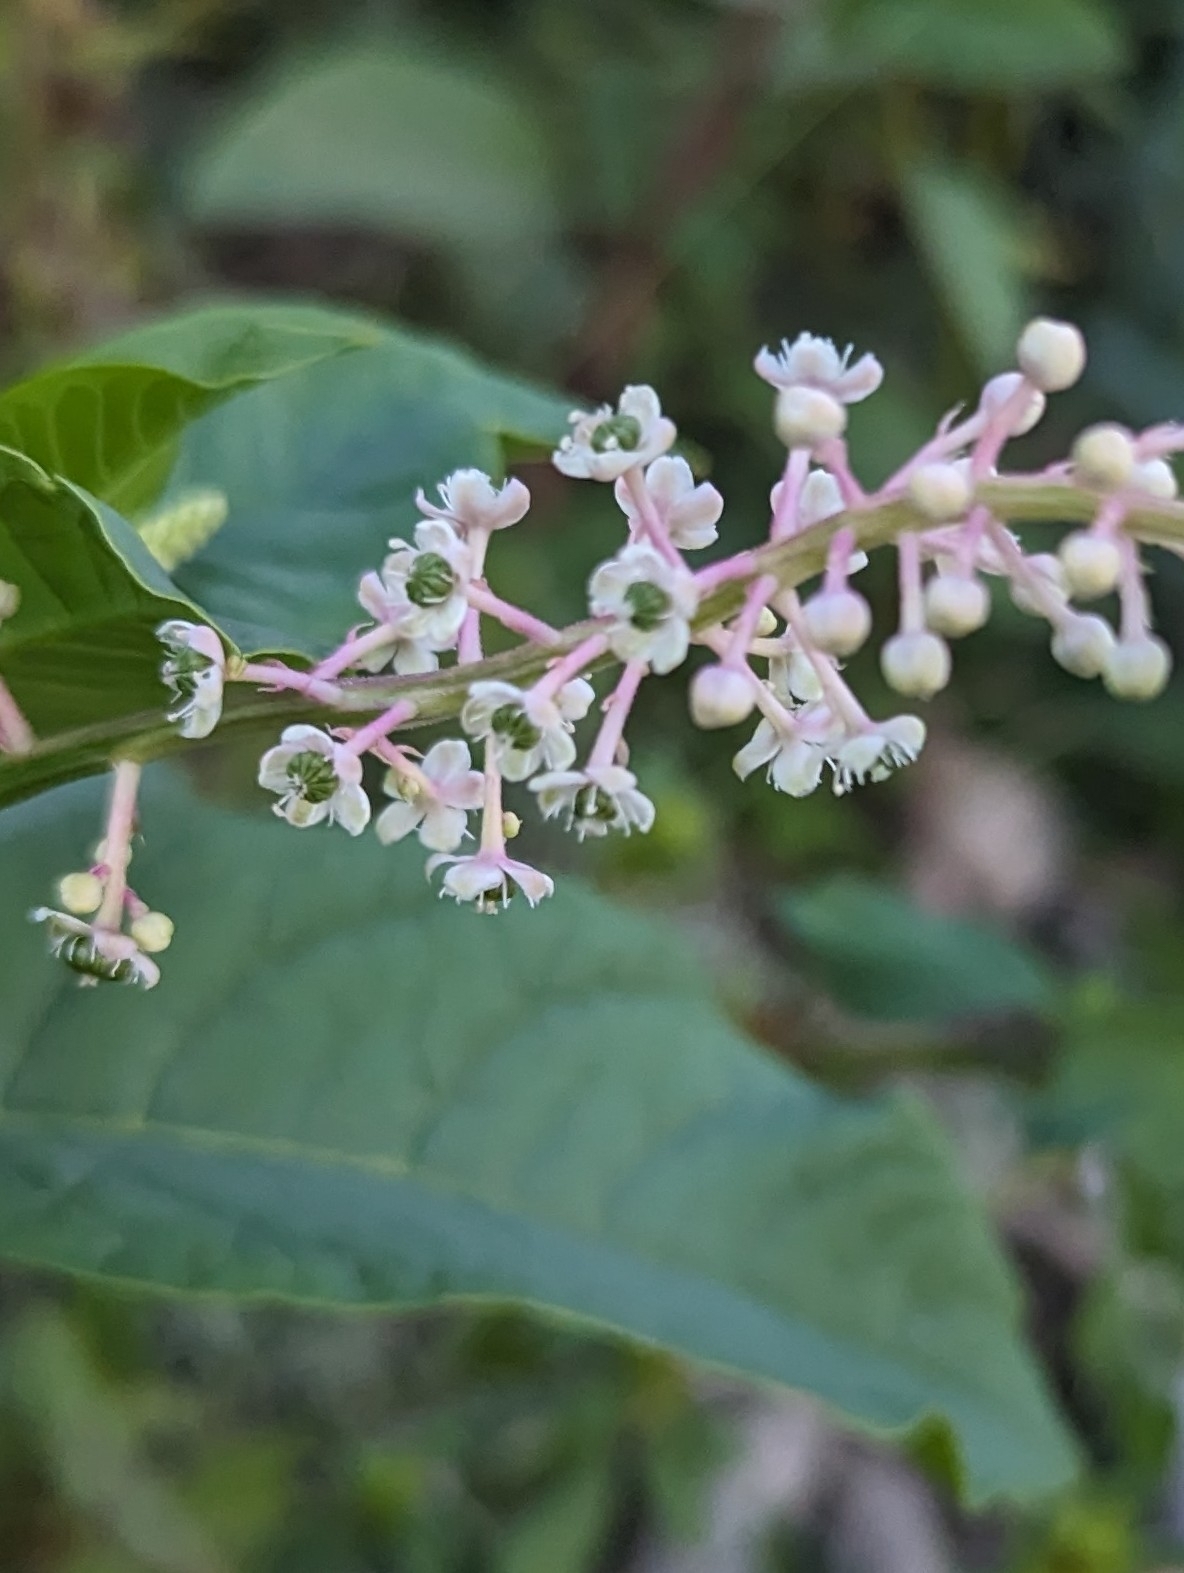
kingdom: Plantae
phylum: Tracheophyta
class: Magnoliopsida
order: Caryophyllales
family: Phytolaccaceae
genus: Phytolacca
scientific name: Phytolacca americana
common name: American pokeweed
